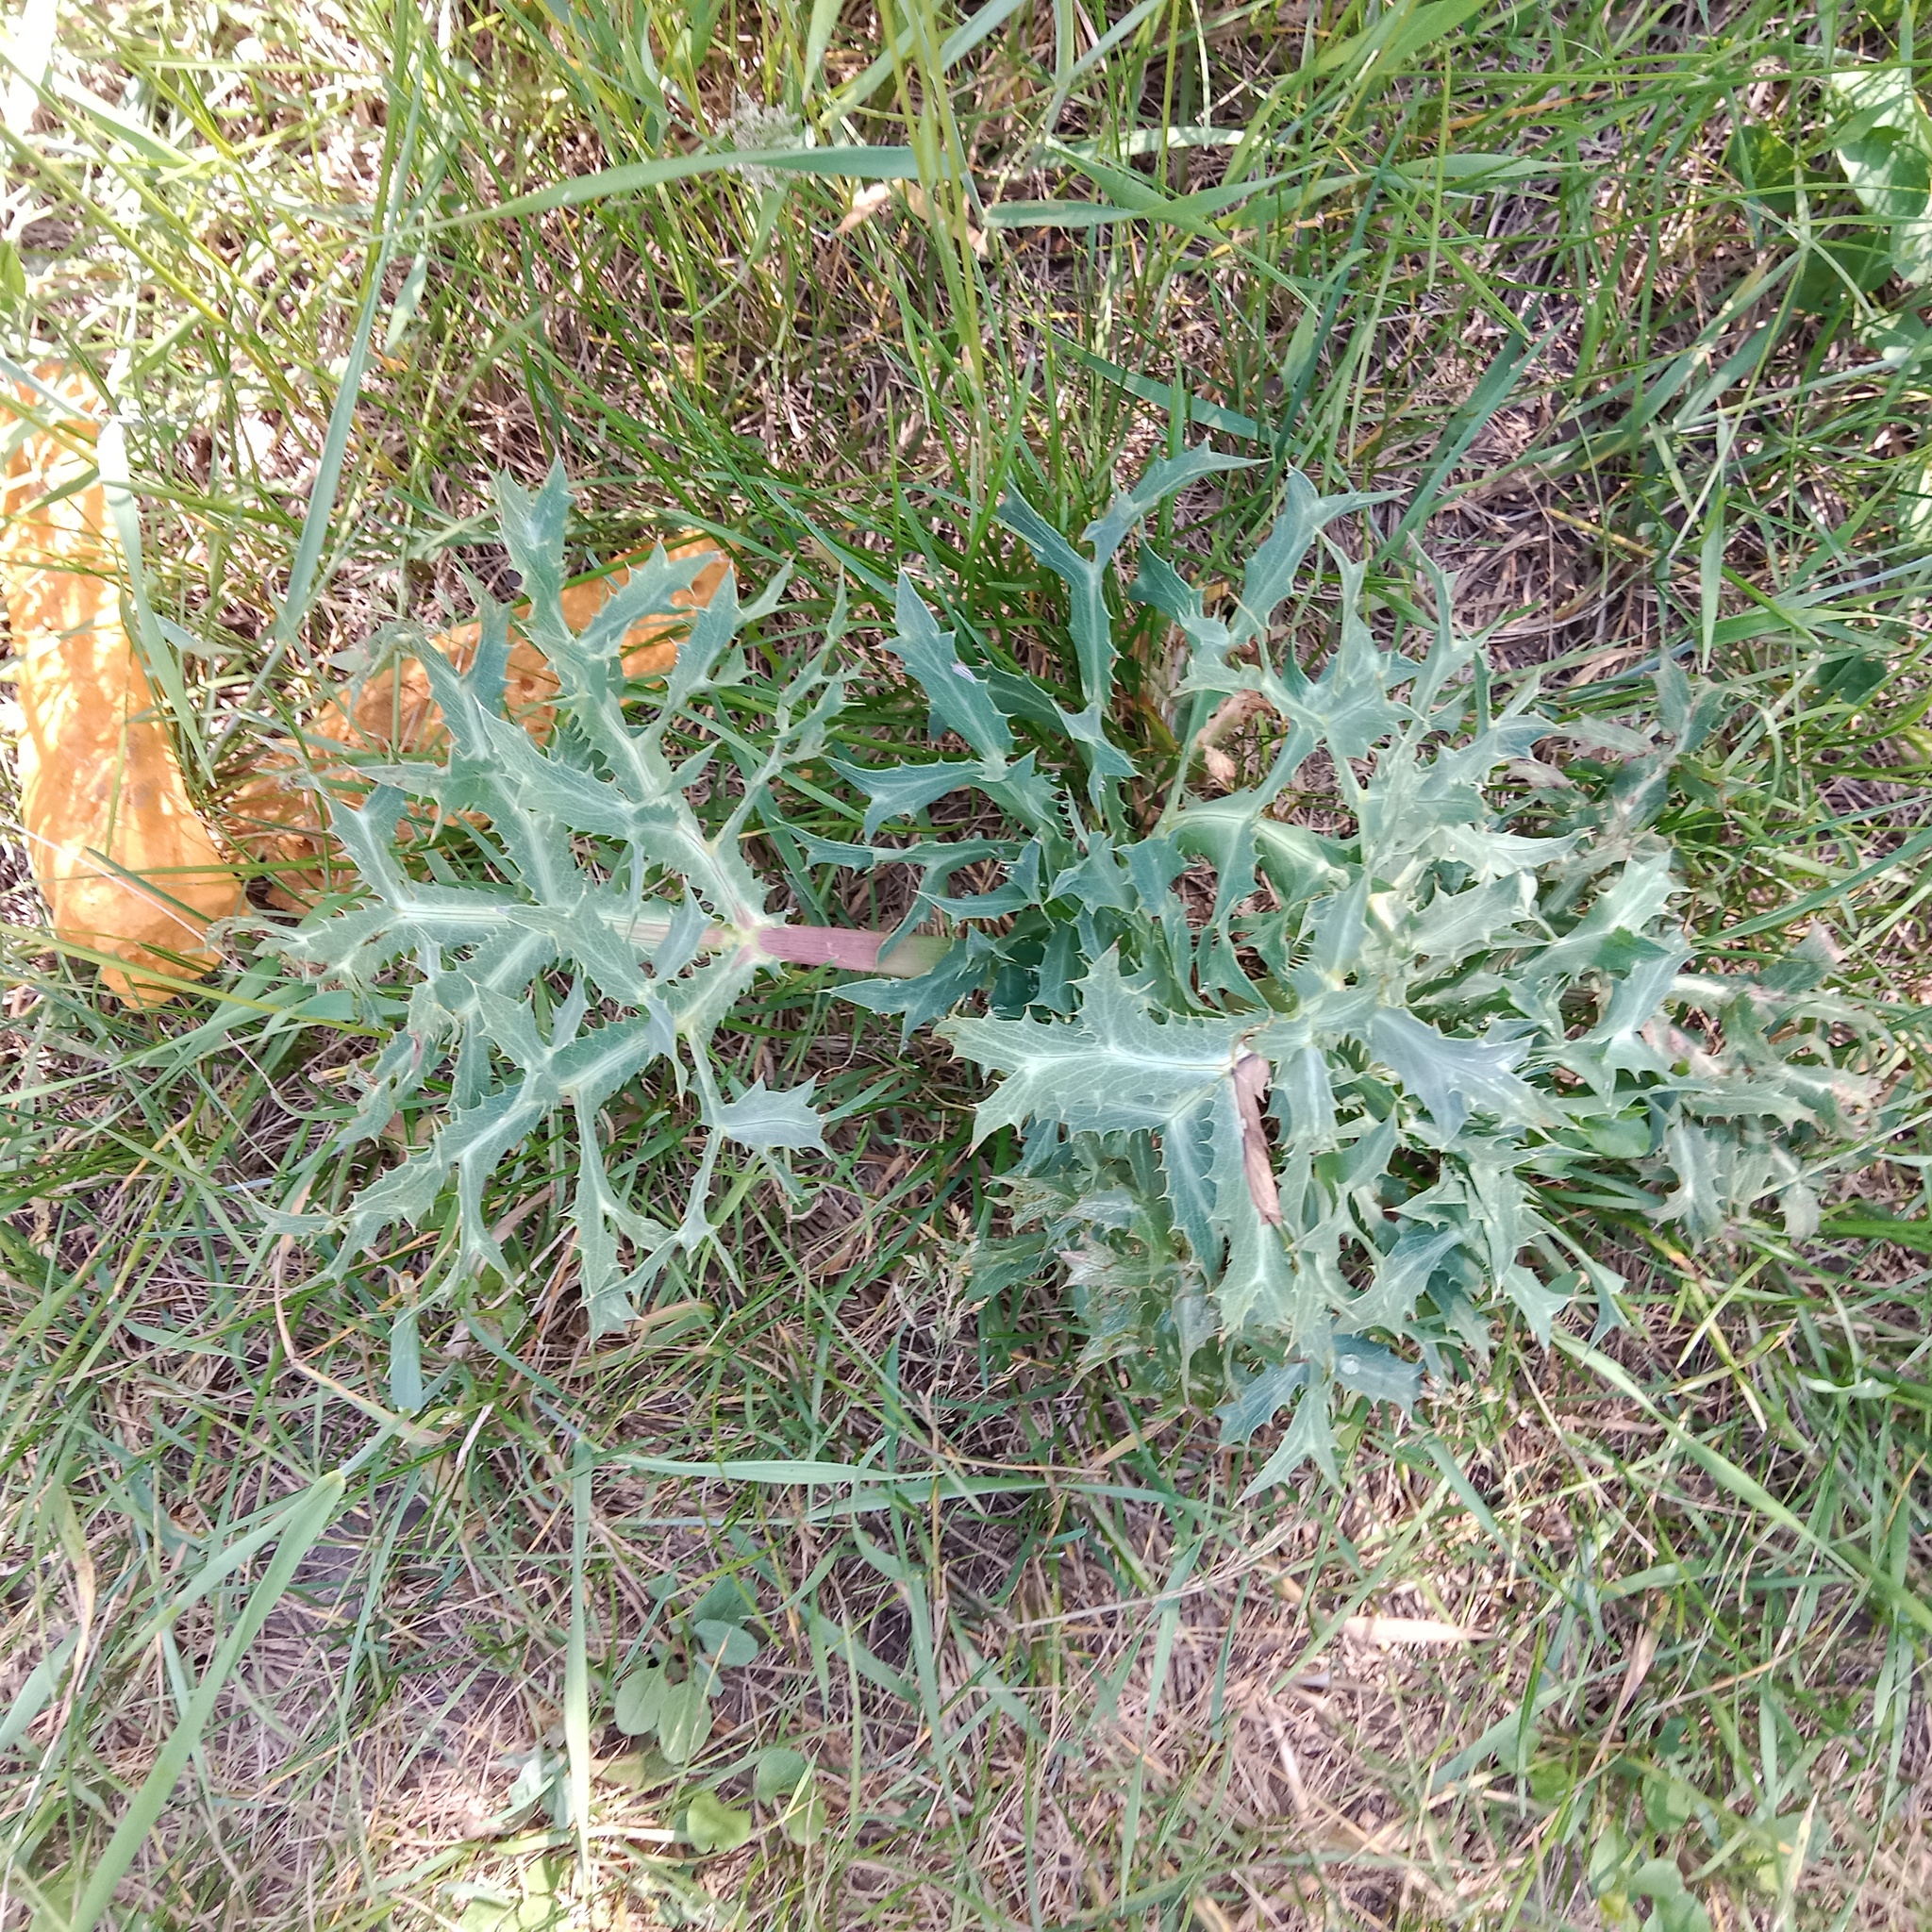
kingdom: Plantae
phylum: Tracheophyta
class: Magnoliopsida
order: Apiales
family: Apiaceae
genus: Eryngium
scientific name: Eryngium campestre
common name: Field eryngo
